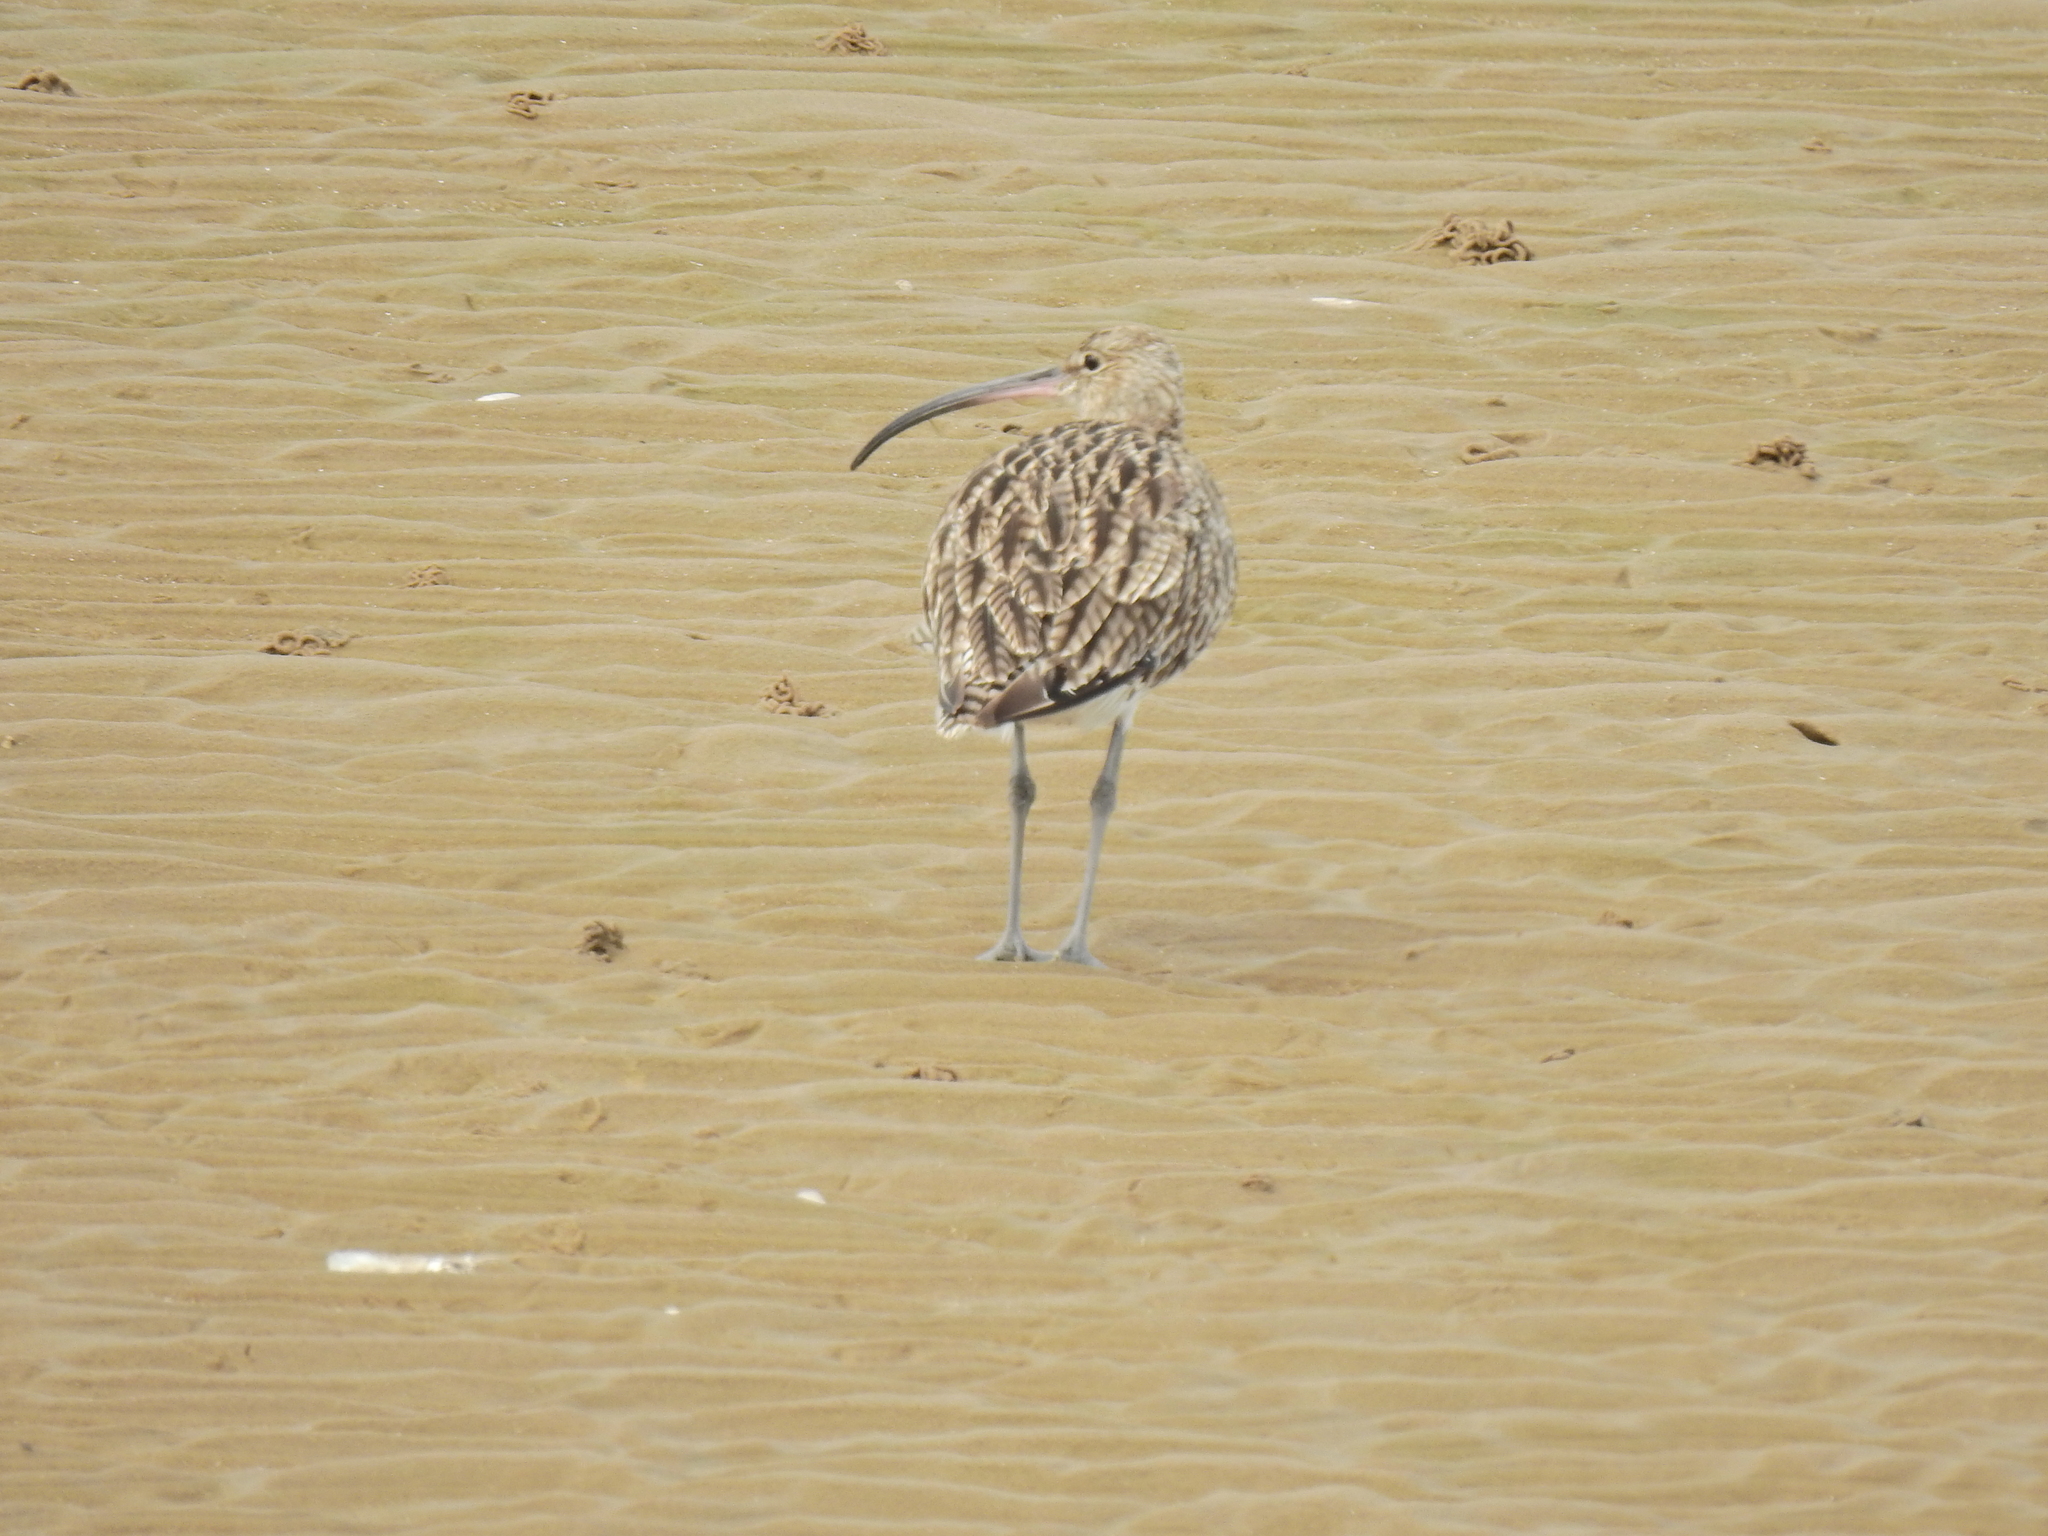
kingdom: Animalia
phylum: Chordata
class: Aves
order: Charadriiformes
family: Scolopacidae
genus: Numenius
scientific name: Numenius arquata
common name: Eurasian curlew
